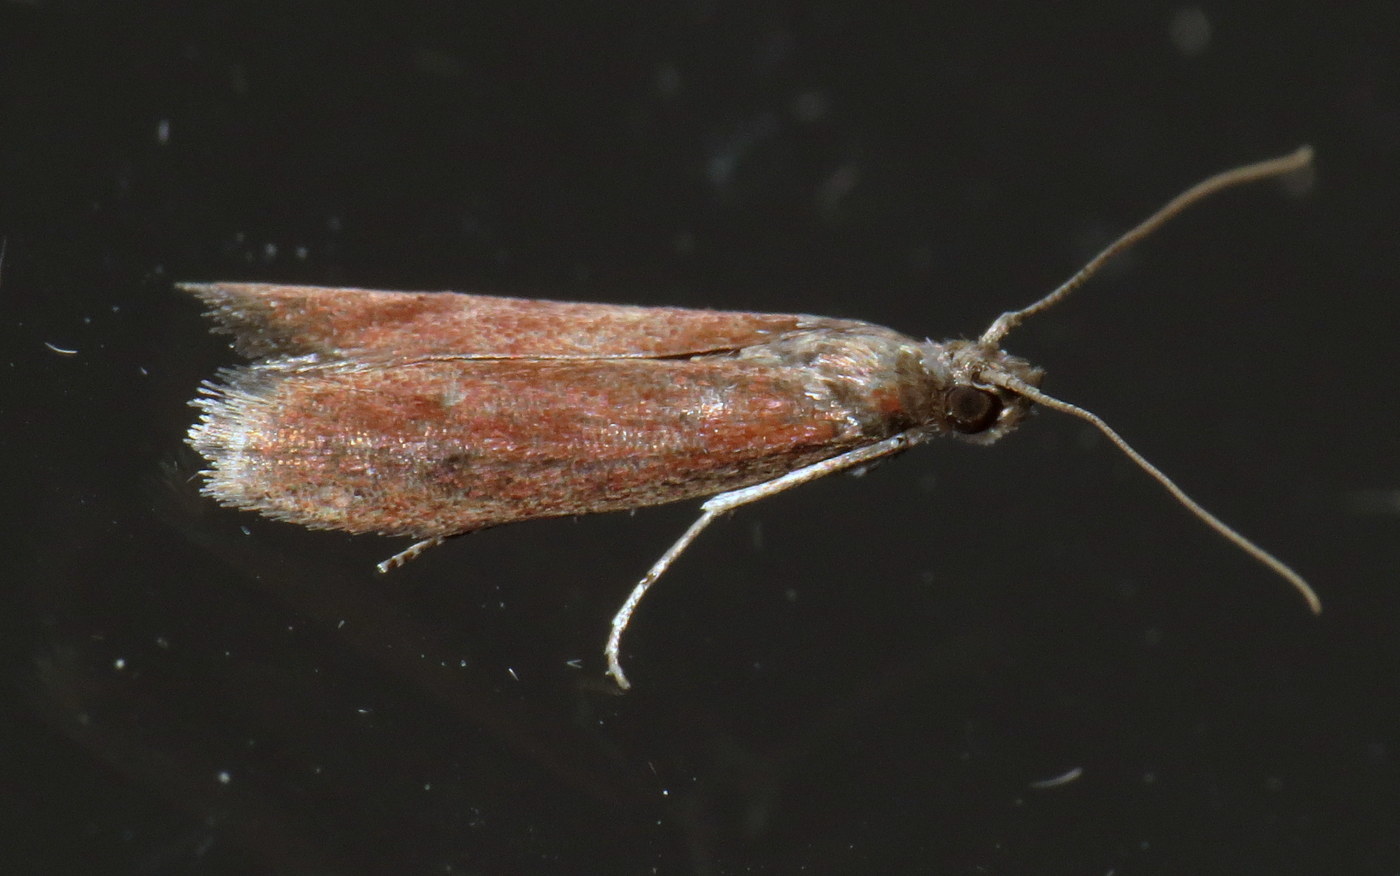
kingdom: Animalia
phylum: Arthropoda
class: Insecta
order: Lepidoptera
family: Pyralidae
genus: Varneria
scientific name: Varneria postremella
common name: Rusty varneria moth
